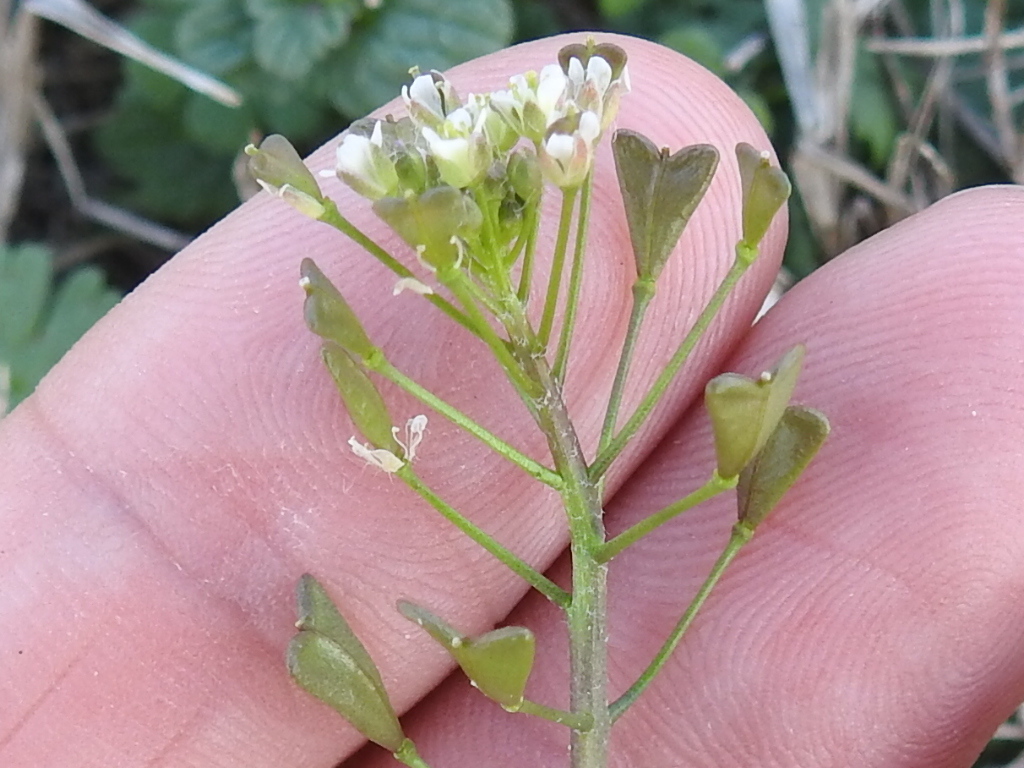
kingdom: Plantae
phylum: Tracheophyta
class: Magnoliopsida
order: Brassicales
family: Brassicaceae
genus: Capsella
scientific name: Capsella bursa-pastoris
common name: Shepherd's purse
